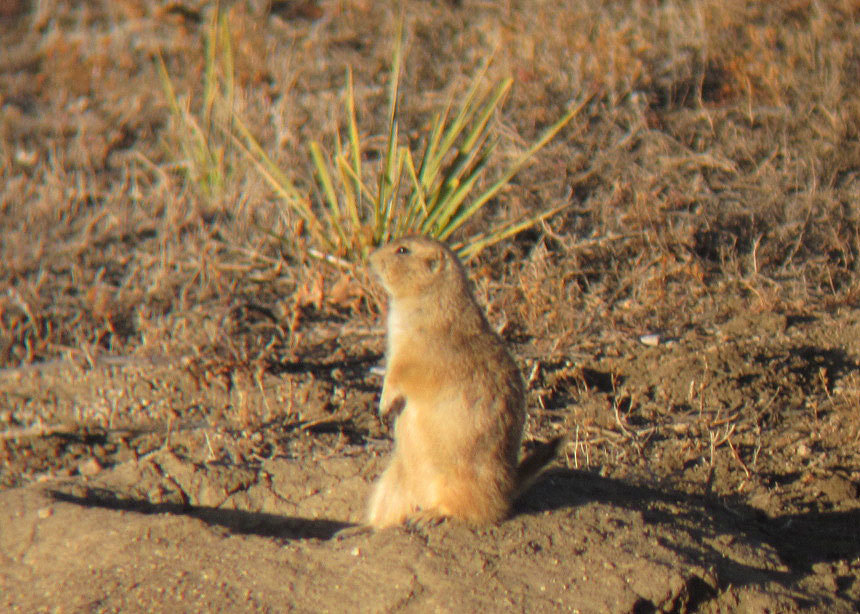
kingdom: Animalia
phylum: Chordata
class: Mammalia
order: Rodentia
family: Sciuridae
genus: Cynomys
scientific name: Cynomys ludovicianus
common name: Black-tailed prairie dog
